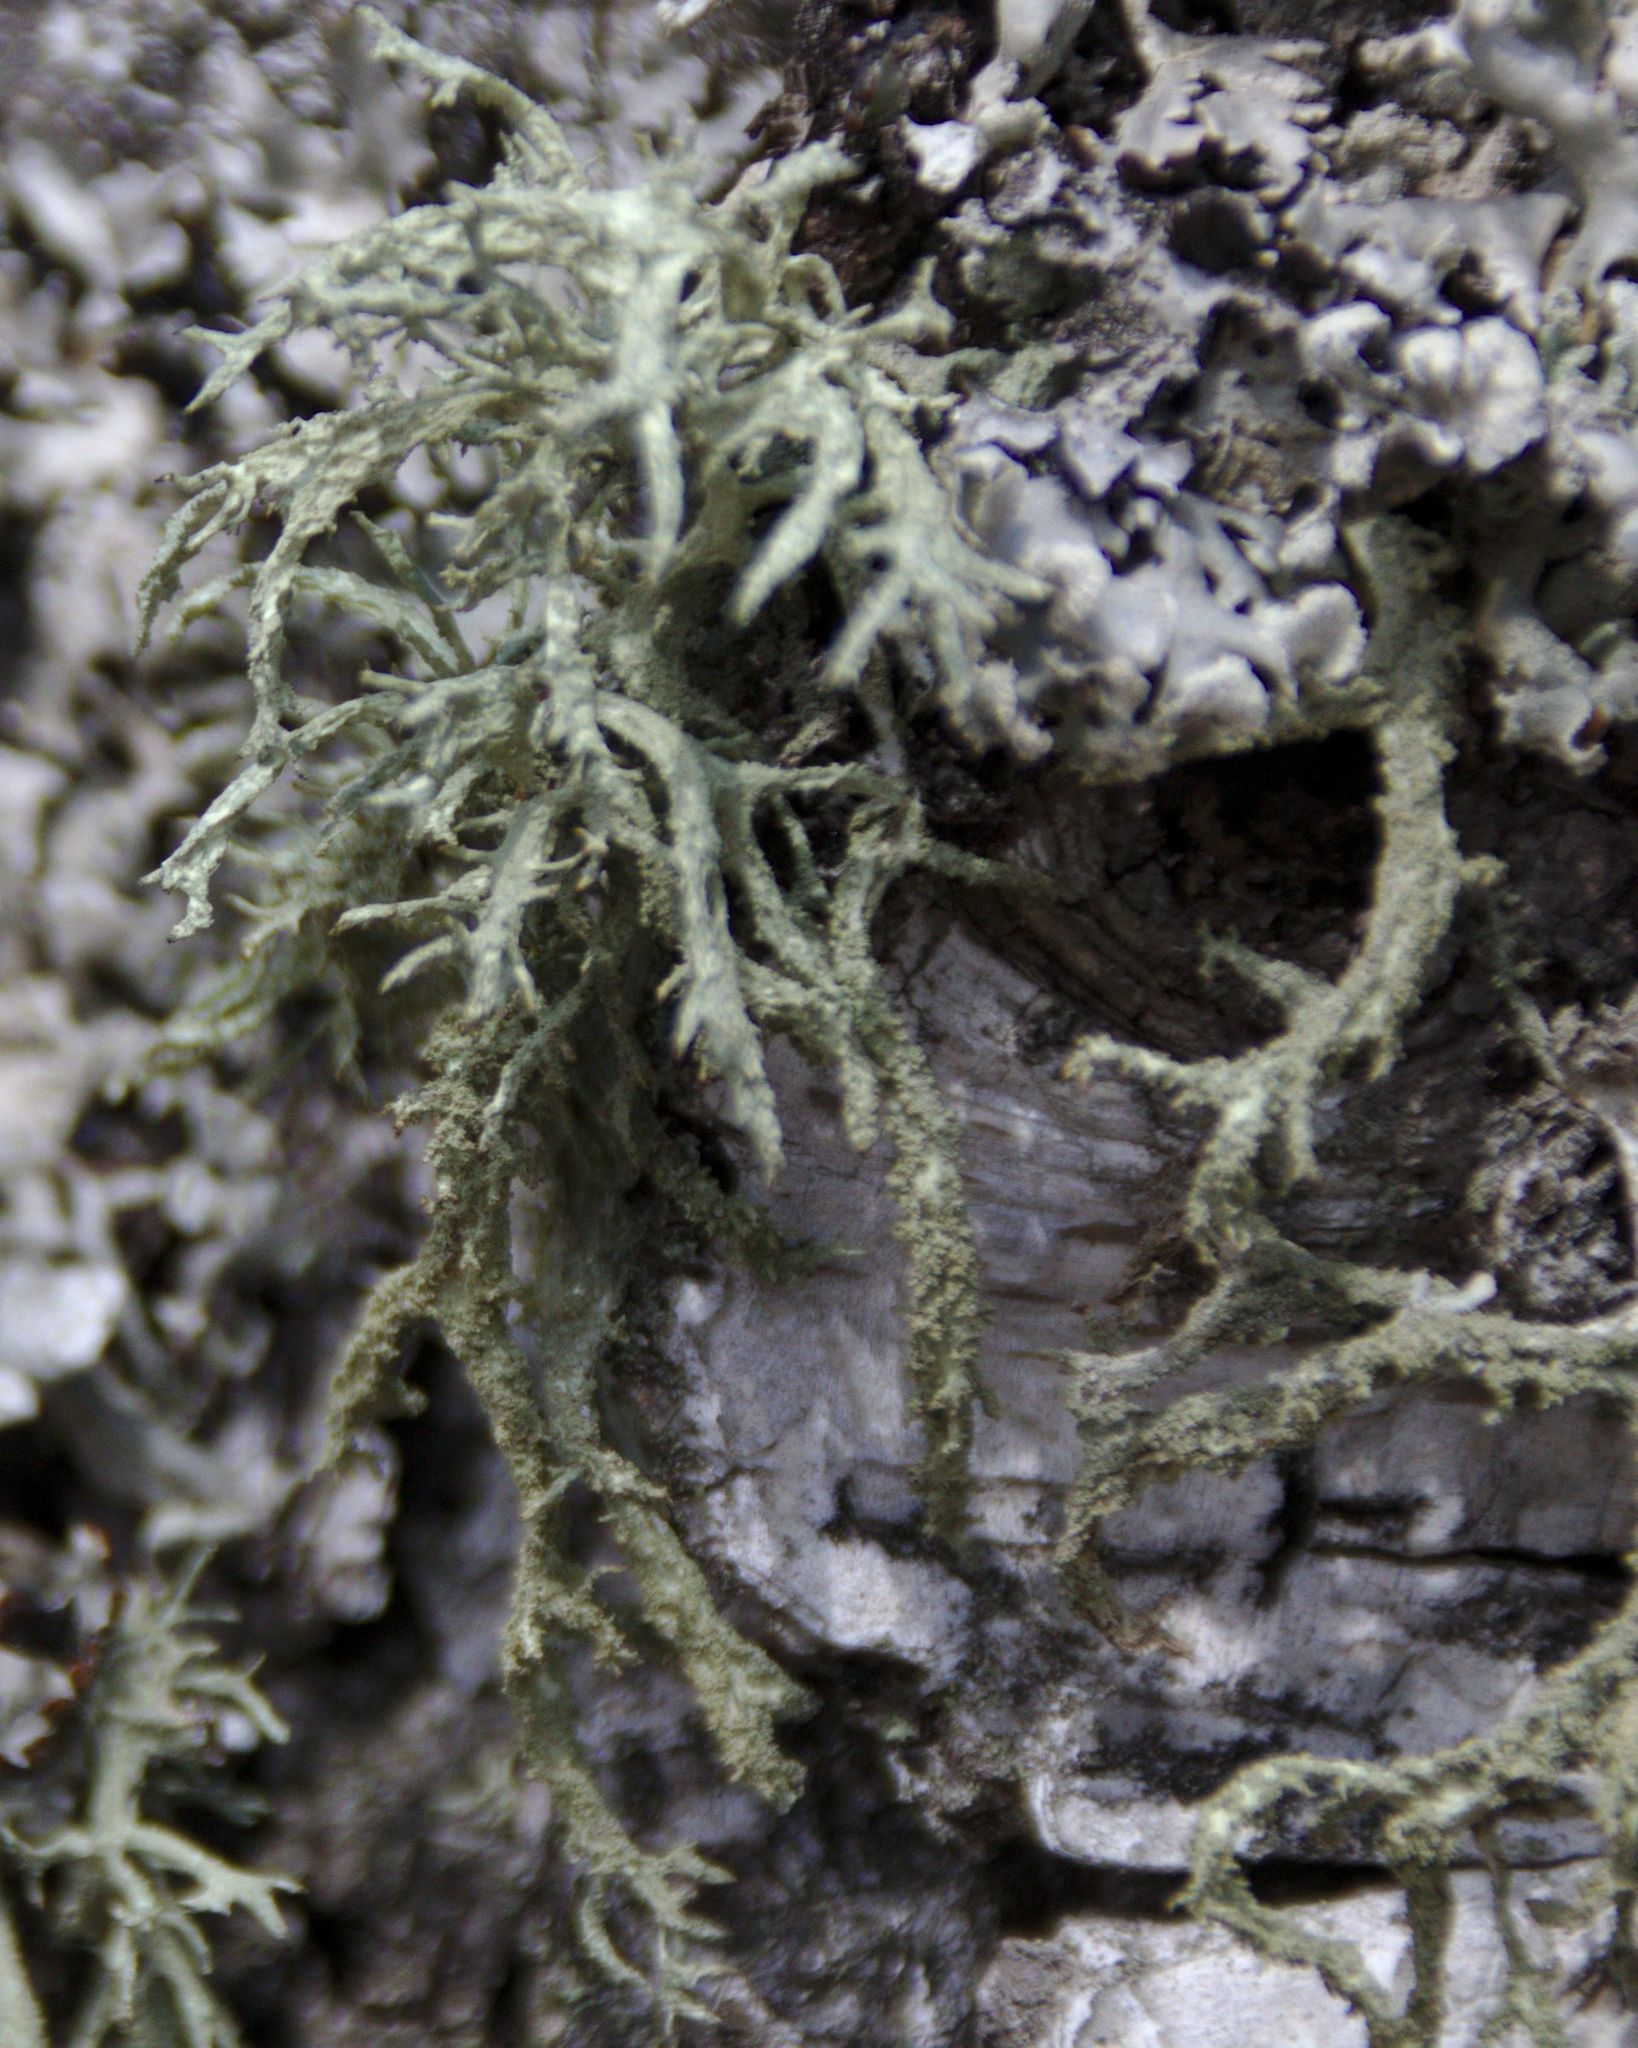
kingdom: Fungi
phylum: Ascomycota
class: Lecanoromycetes
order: Lecanorales
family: Parmeliaceae
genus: Evernia
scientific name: Evernia mesomorpha
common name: Boreal oak moss lichen
